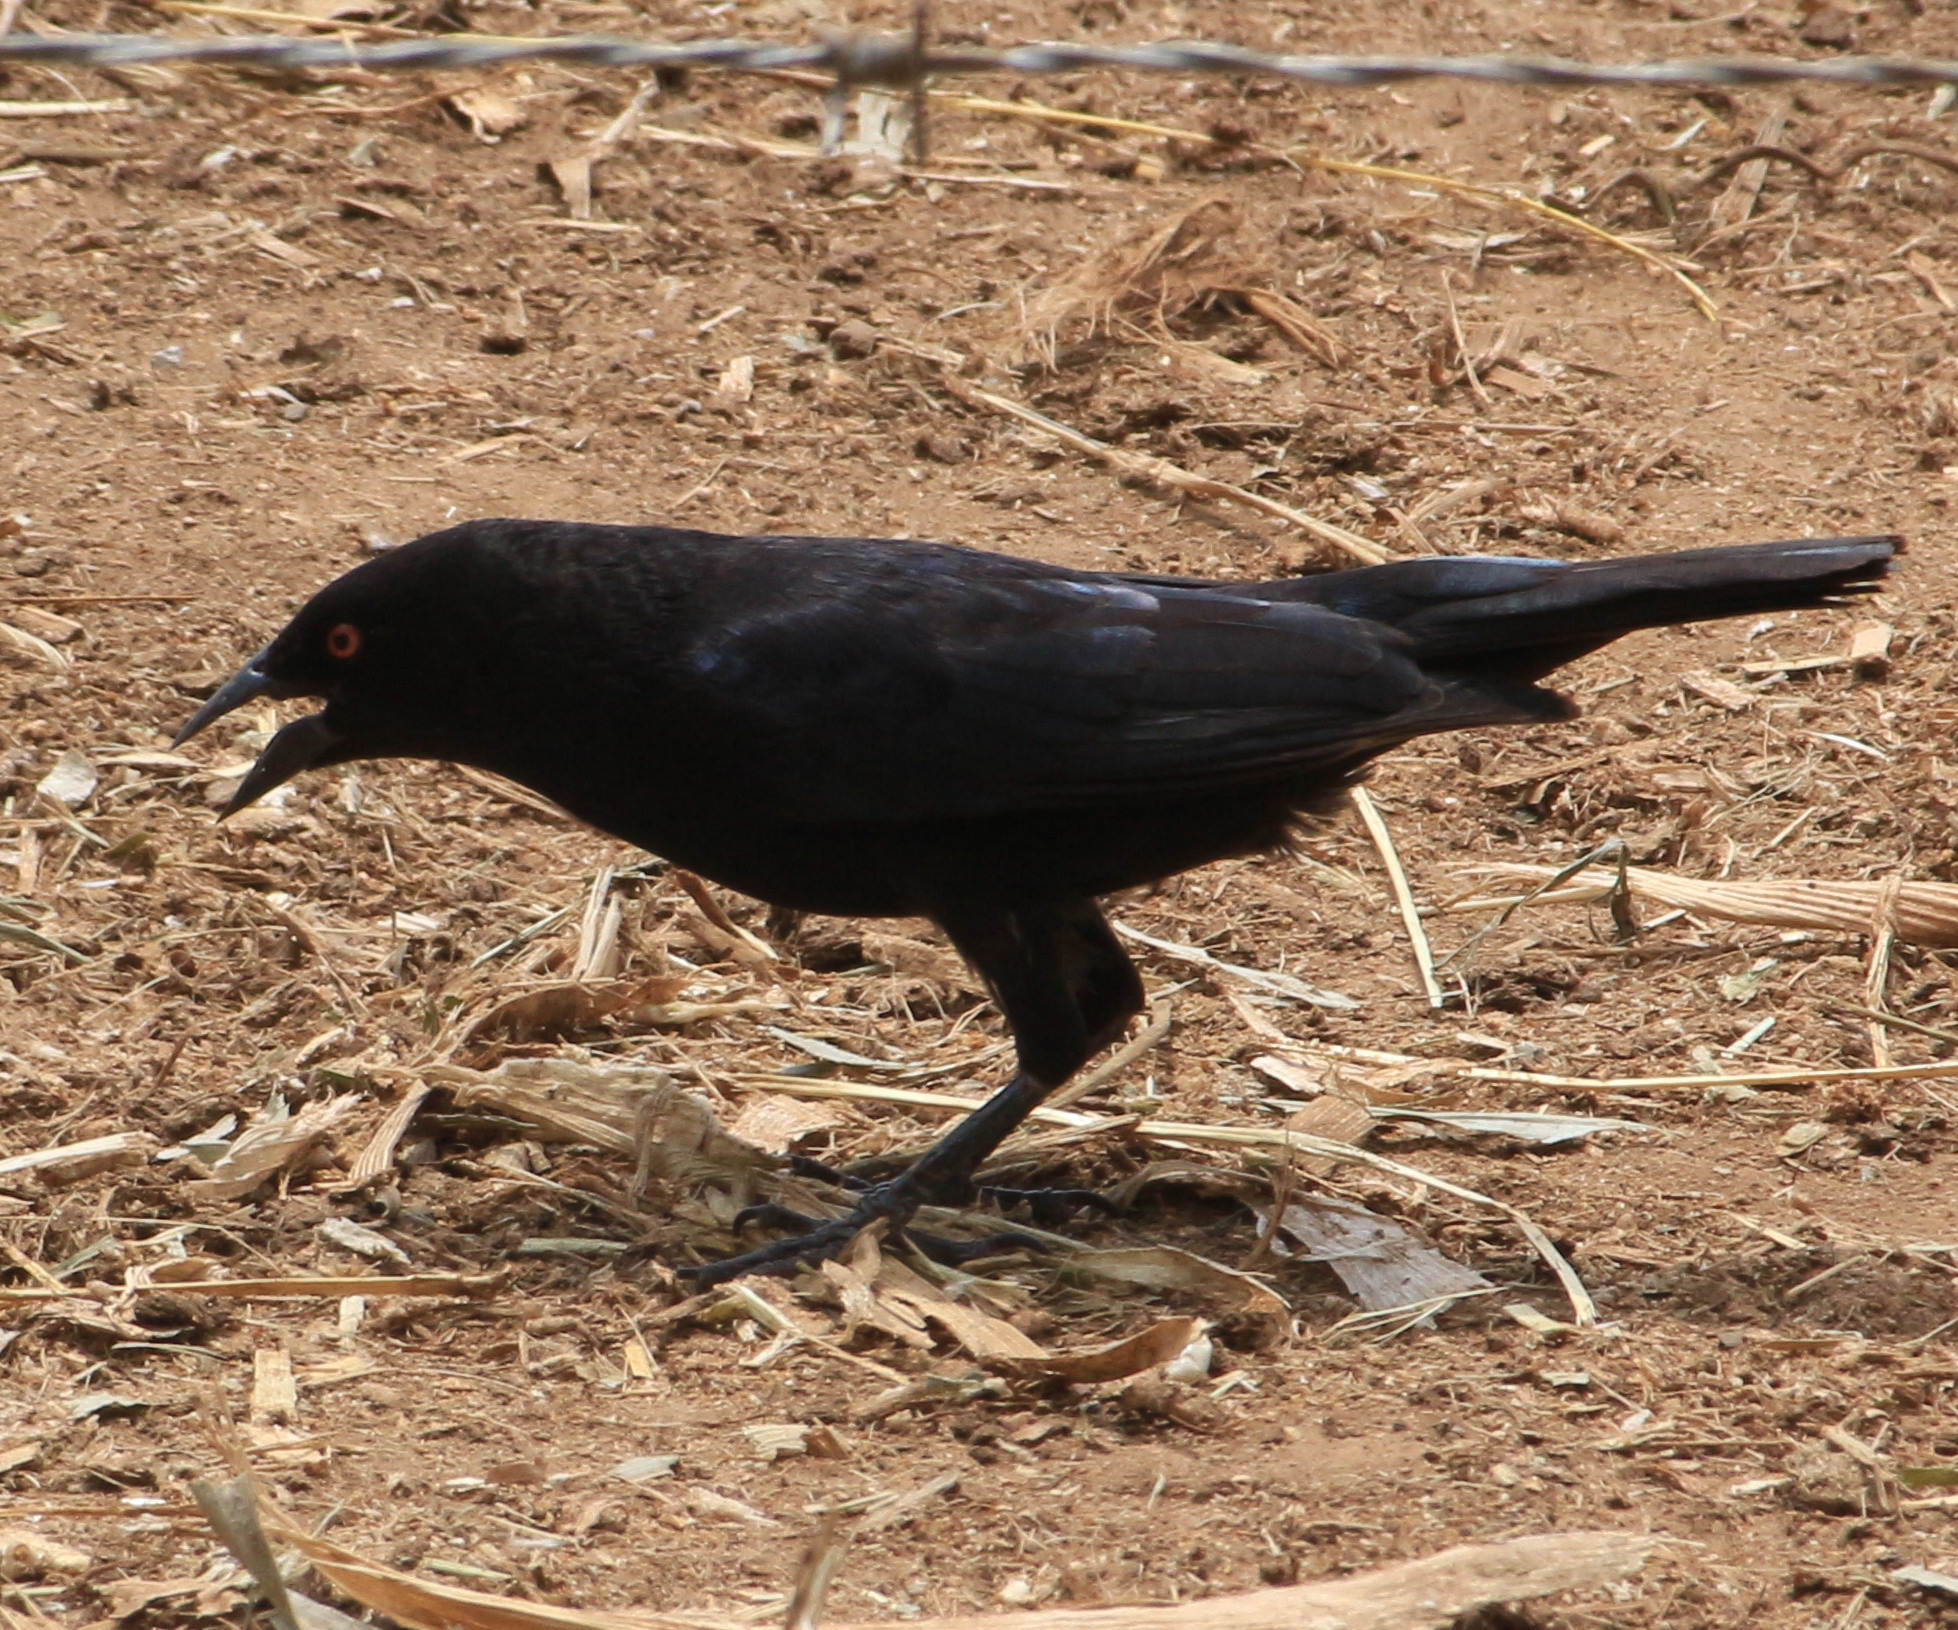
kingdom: Animalia
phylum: Chordata
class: Aves
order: Passeriformes
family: Icteridae
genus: Molothrus
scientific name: Molothrus aeneus
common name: Bronzed cowbird
